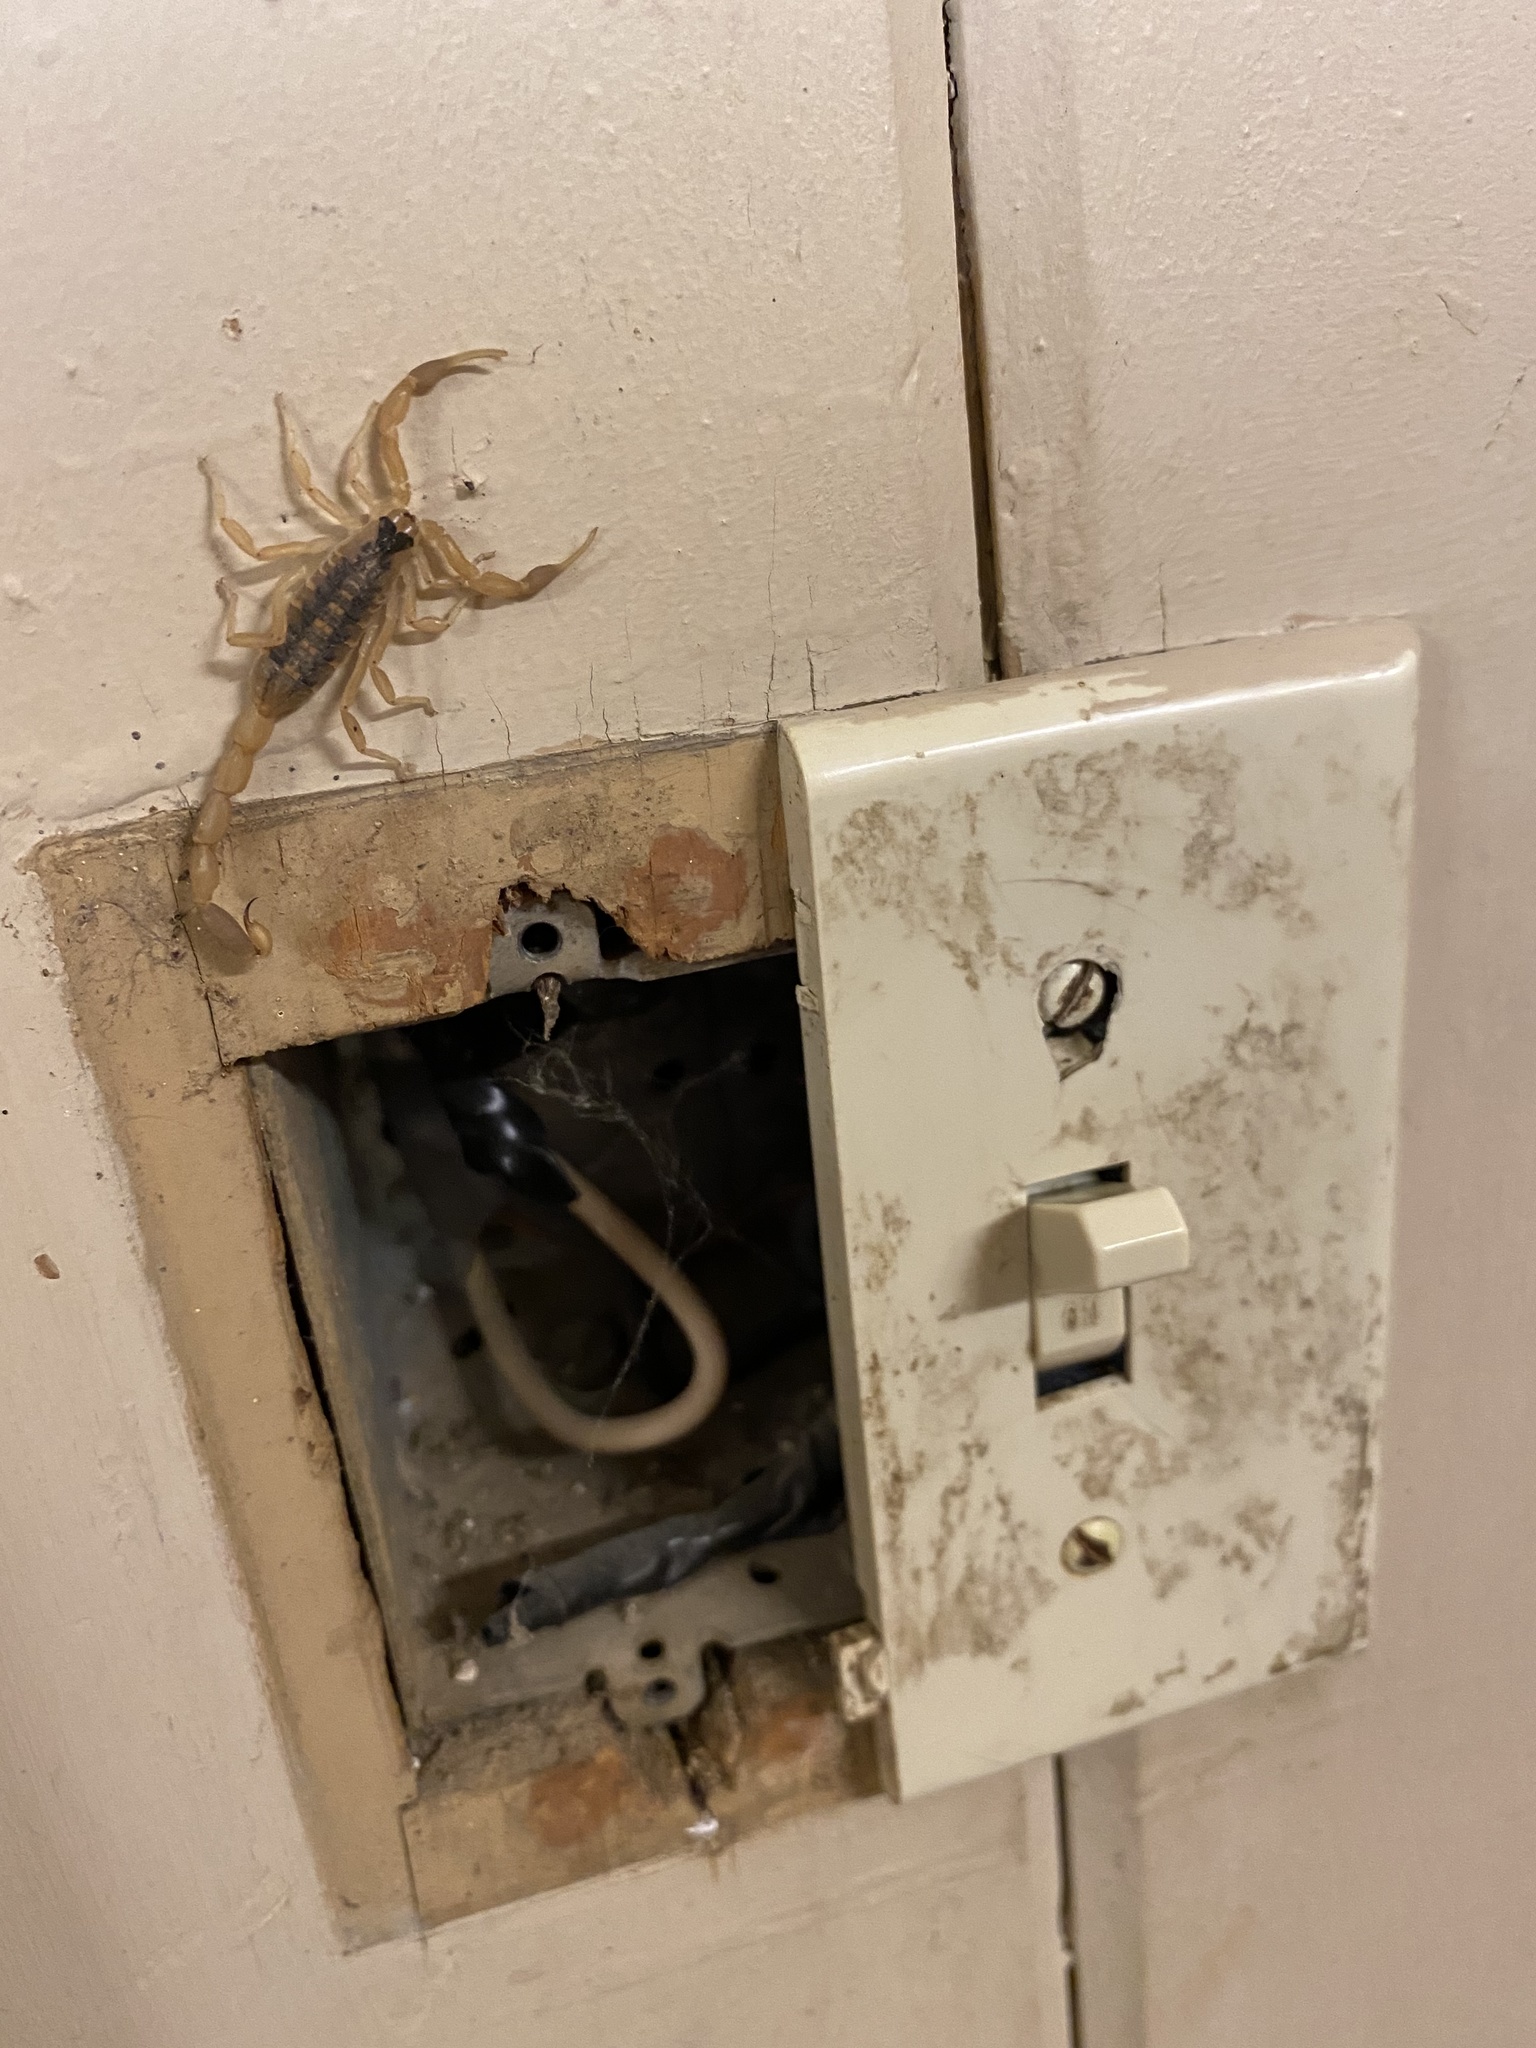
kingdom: Animalia
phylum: Arthropoda
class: Arachnida
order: Scorpiones
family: Buthidae
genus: Centruroides
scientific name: Centruroides vittatus
